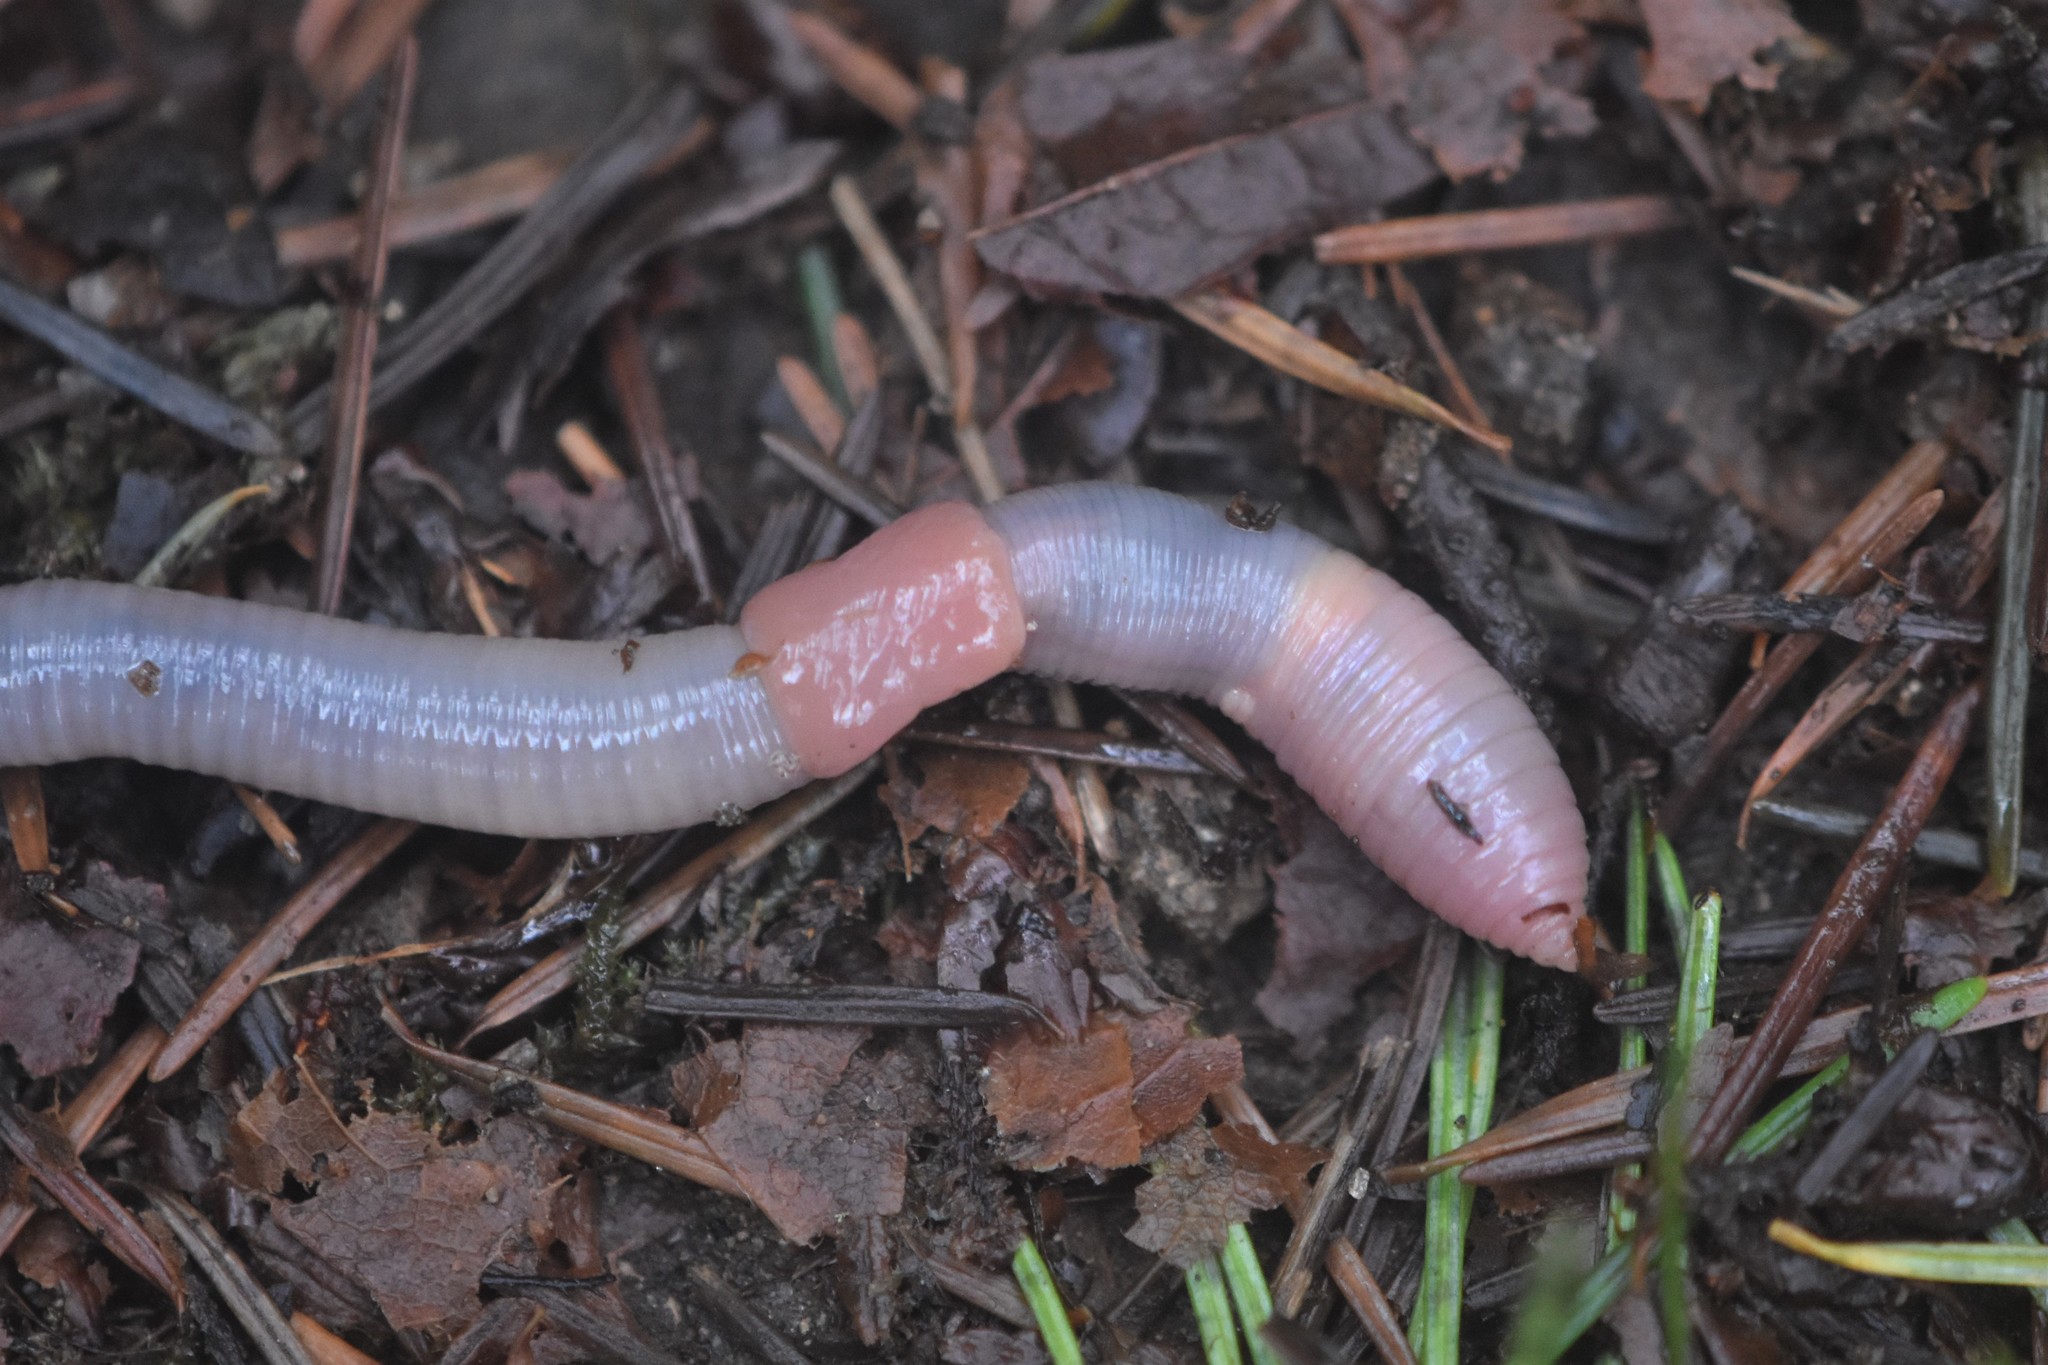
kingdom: Animalia
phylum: Annelida
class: Clitellata
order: Crassiclitellata
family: Lumbricidae
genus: Octolasion
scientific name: Octolasion cyaneum
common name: Woodland blue worm
